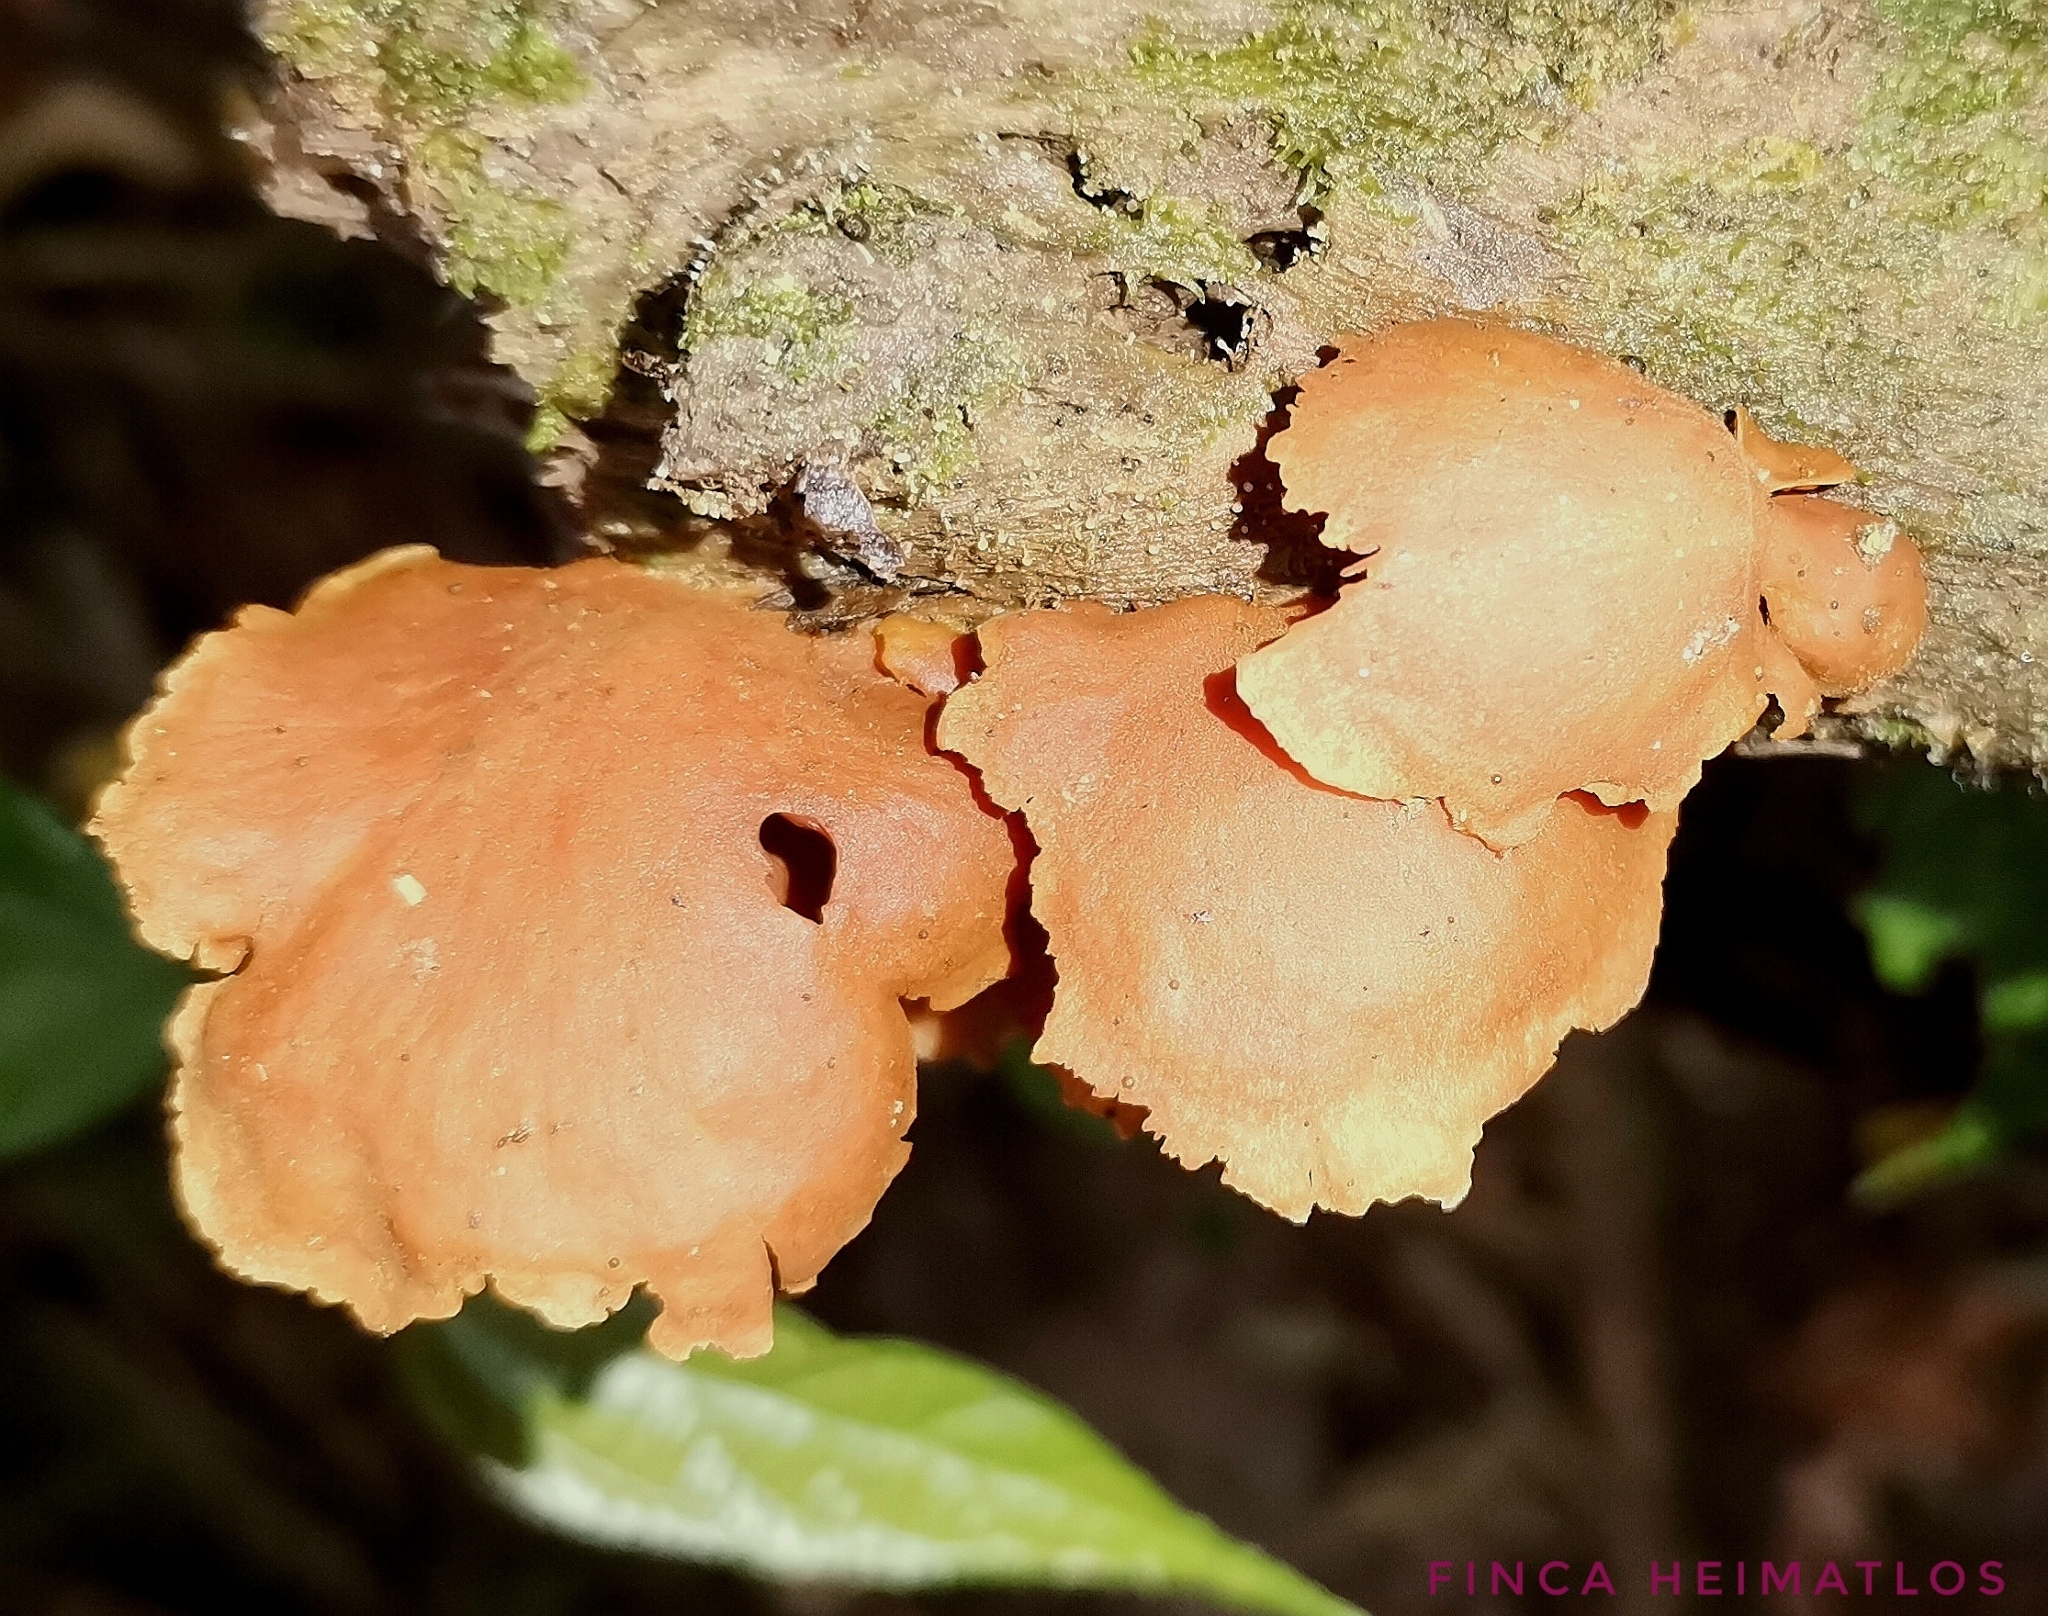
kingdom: Fungi
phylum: Basidiomycota
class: Agaricomycetes
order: Agaricales
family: Cortinariaceae
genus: Pyrrhoglossum
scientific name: Pyrrhoglossum stipitatum
